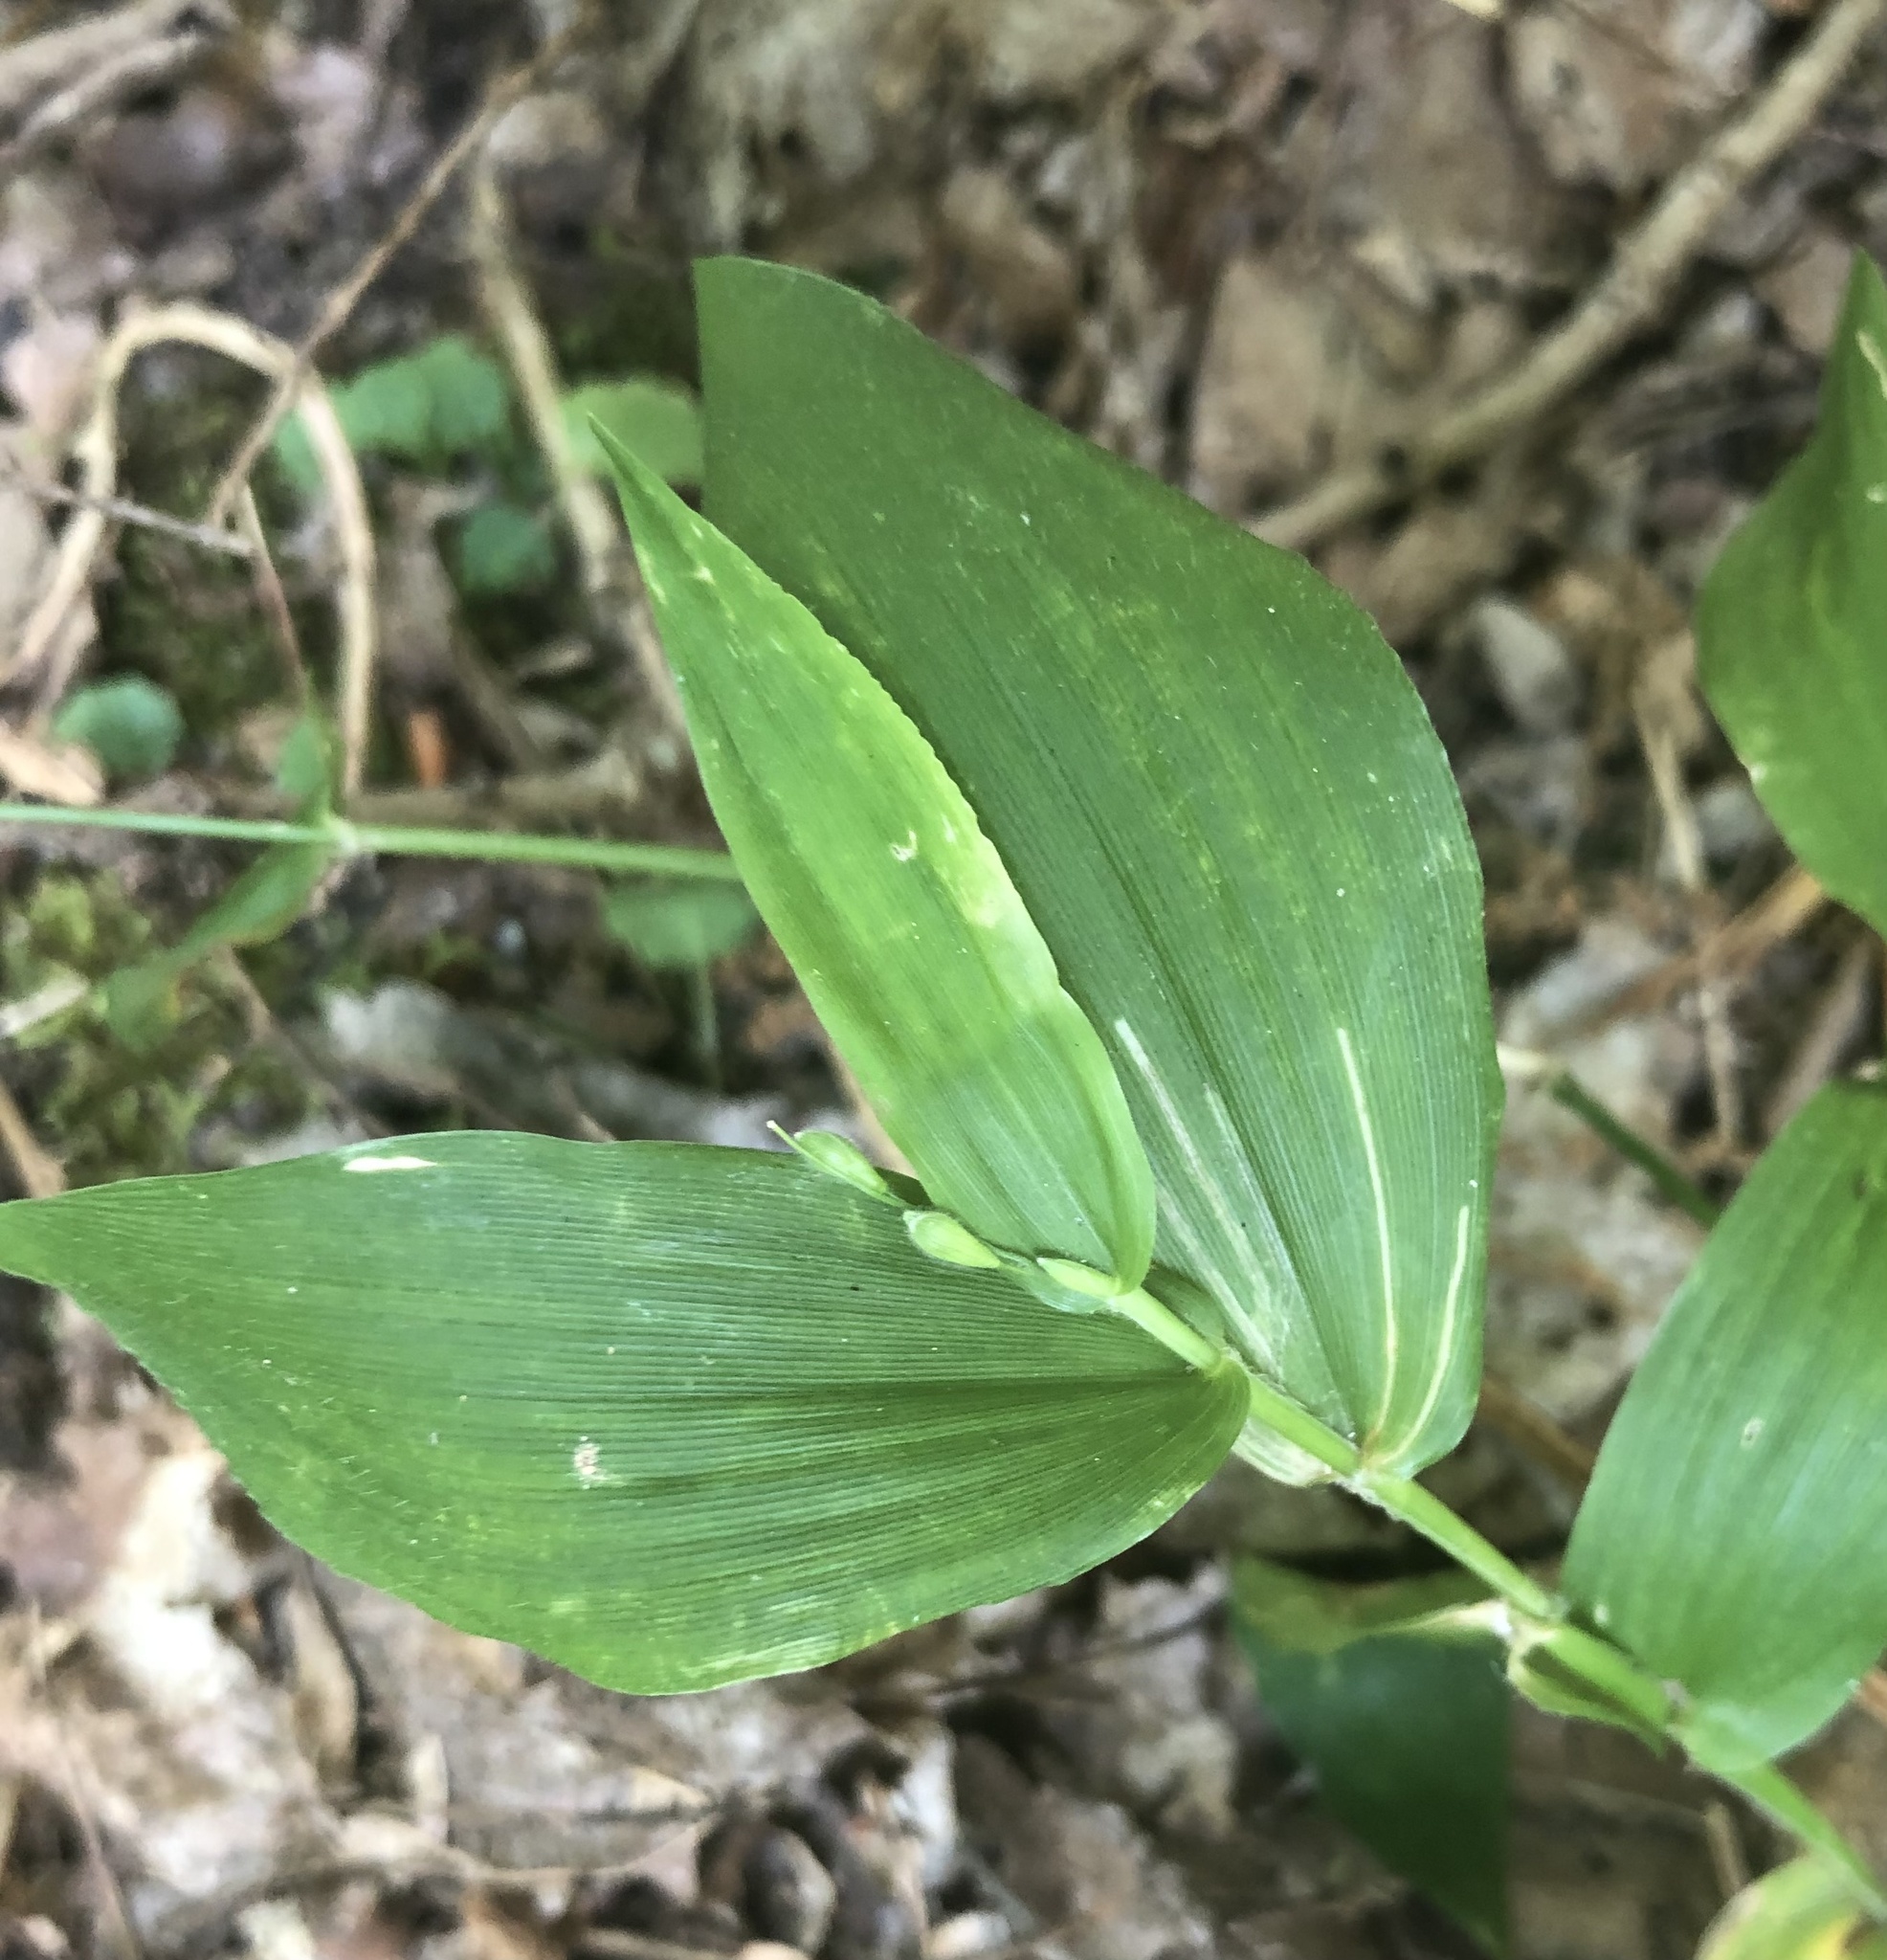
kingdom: Animalia
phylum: Arthropoda
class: Insecta
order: Diptera
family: Agromyzidae
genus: Cerodontha
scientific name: Cerodontha dorsalis
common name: Grass sheathminer fly
